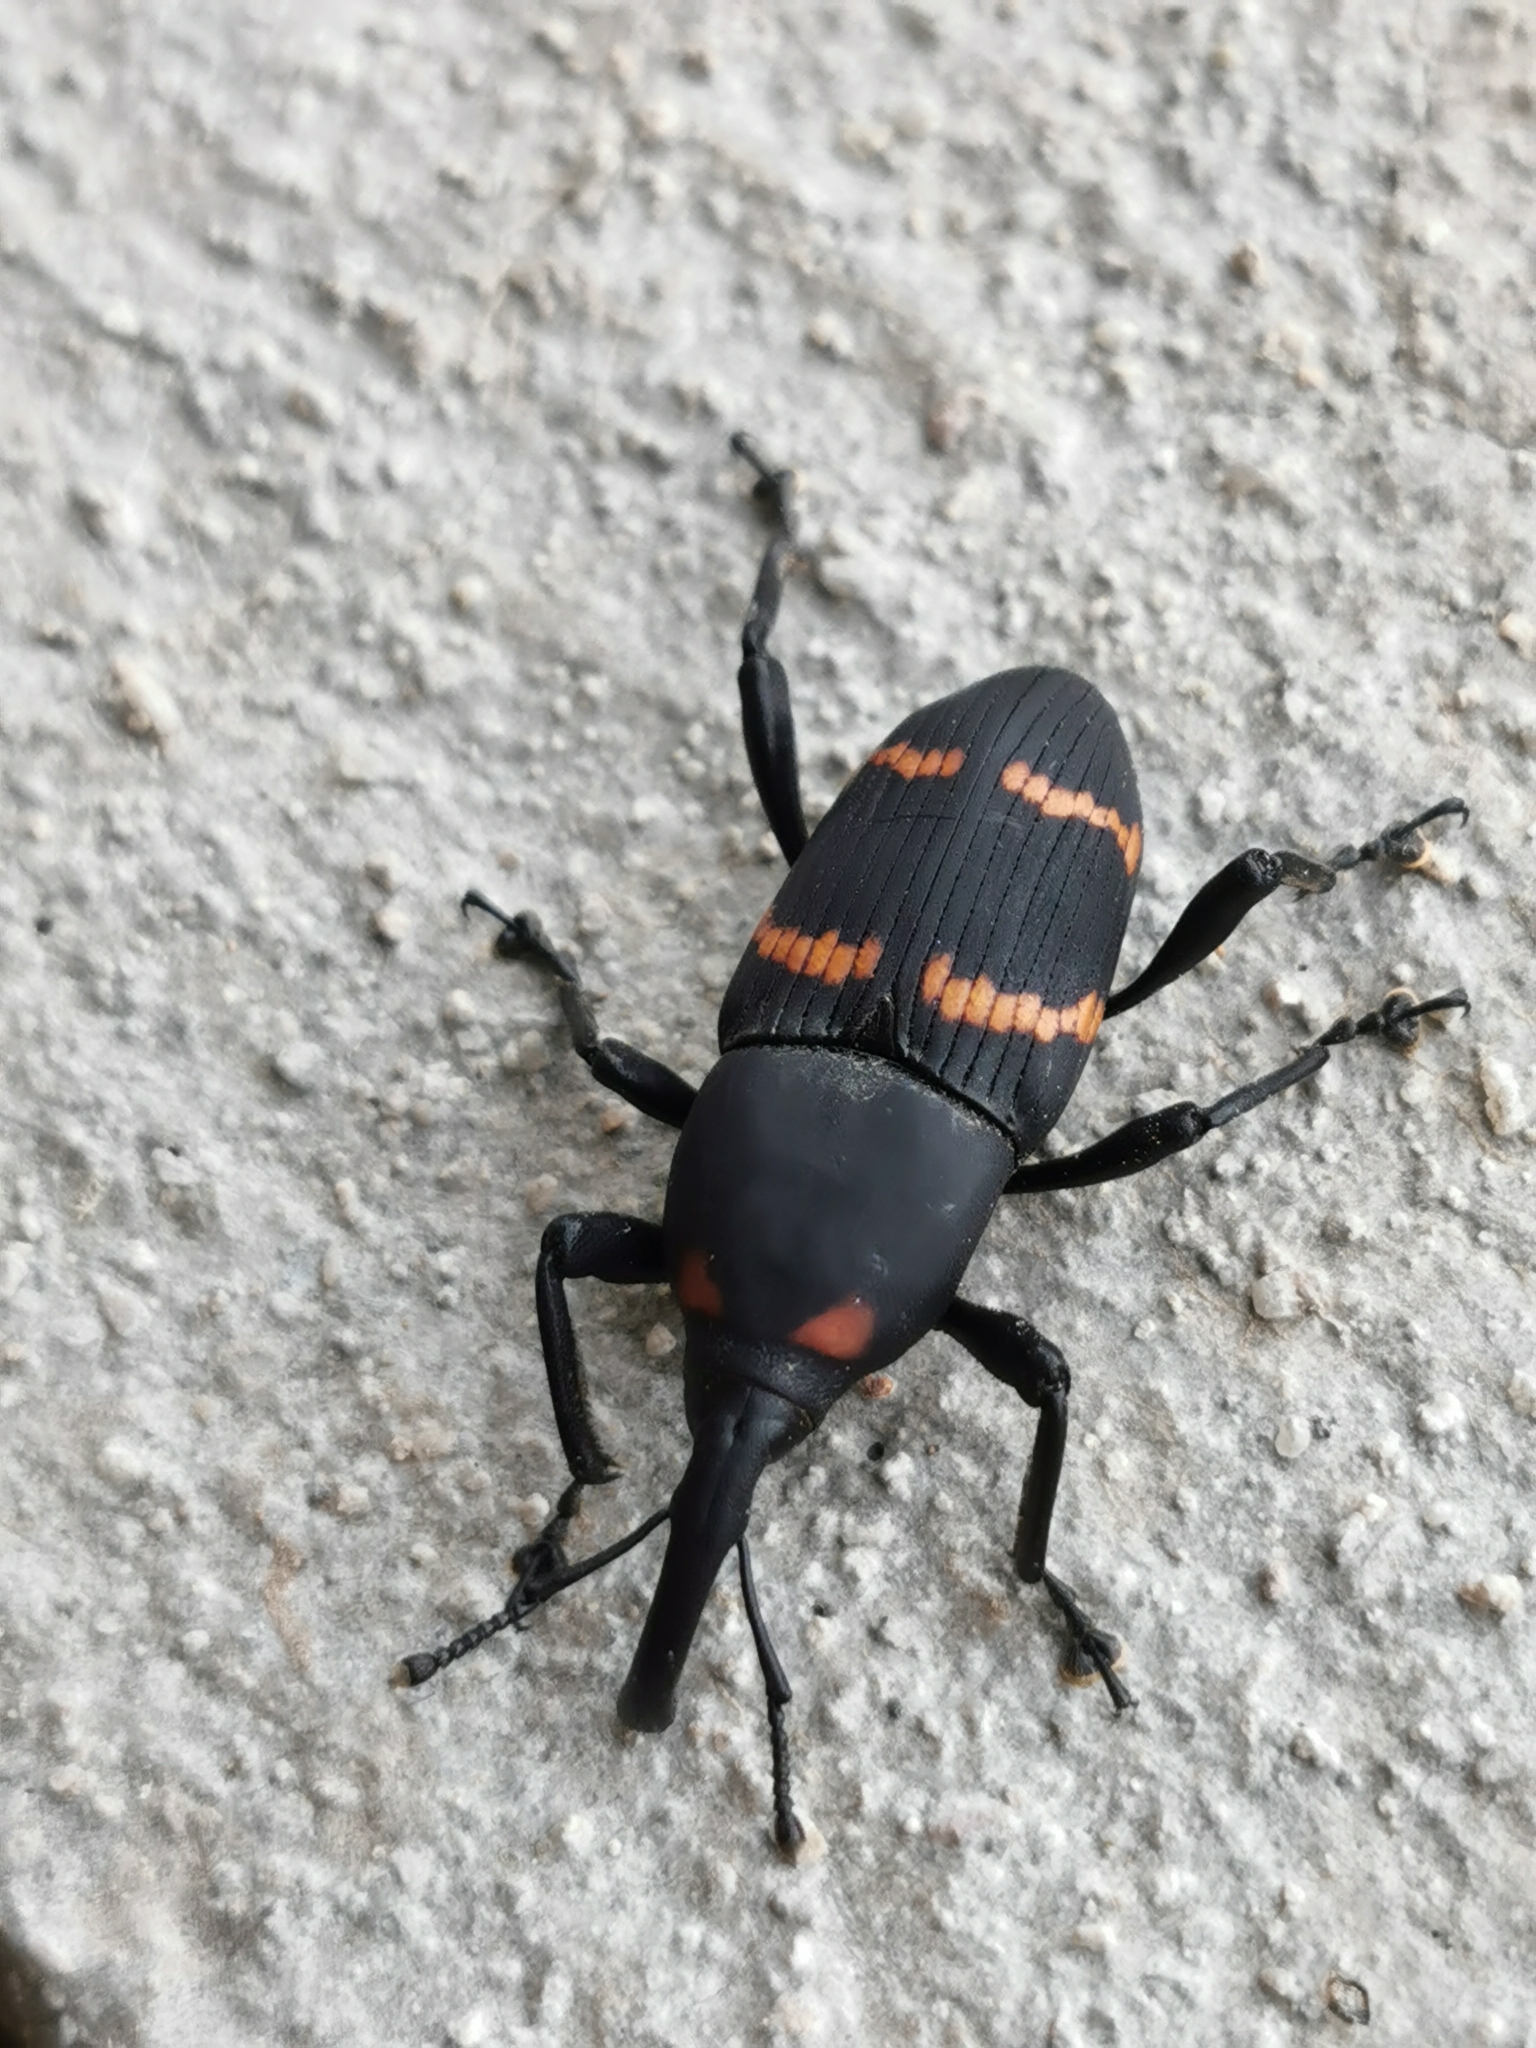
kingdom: Animalia
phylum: Arthropoda
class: Insecta
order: Coleoptera
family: Dryophthoridae
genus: Cactophagus
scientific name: Cactophagus spinolae
